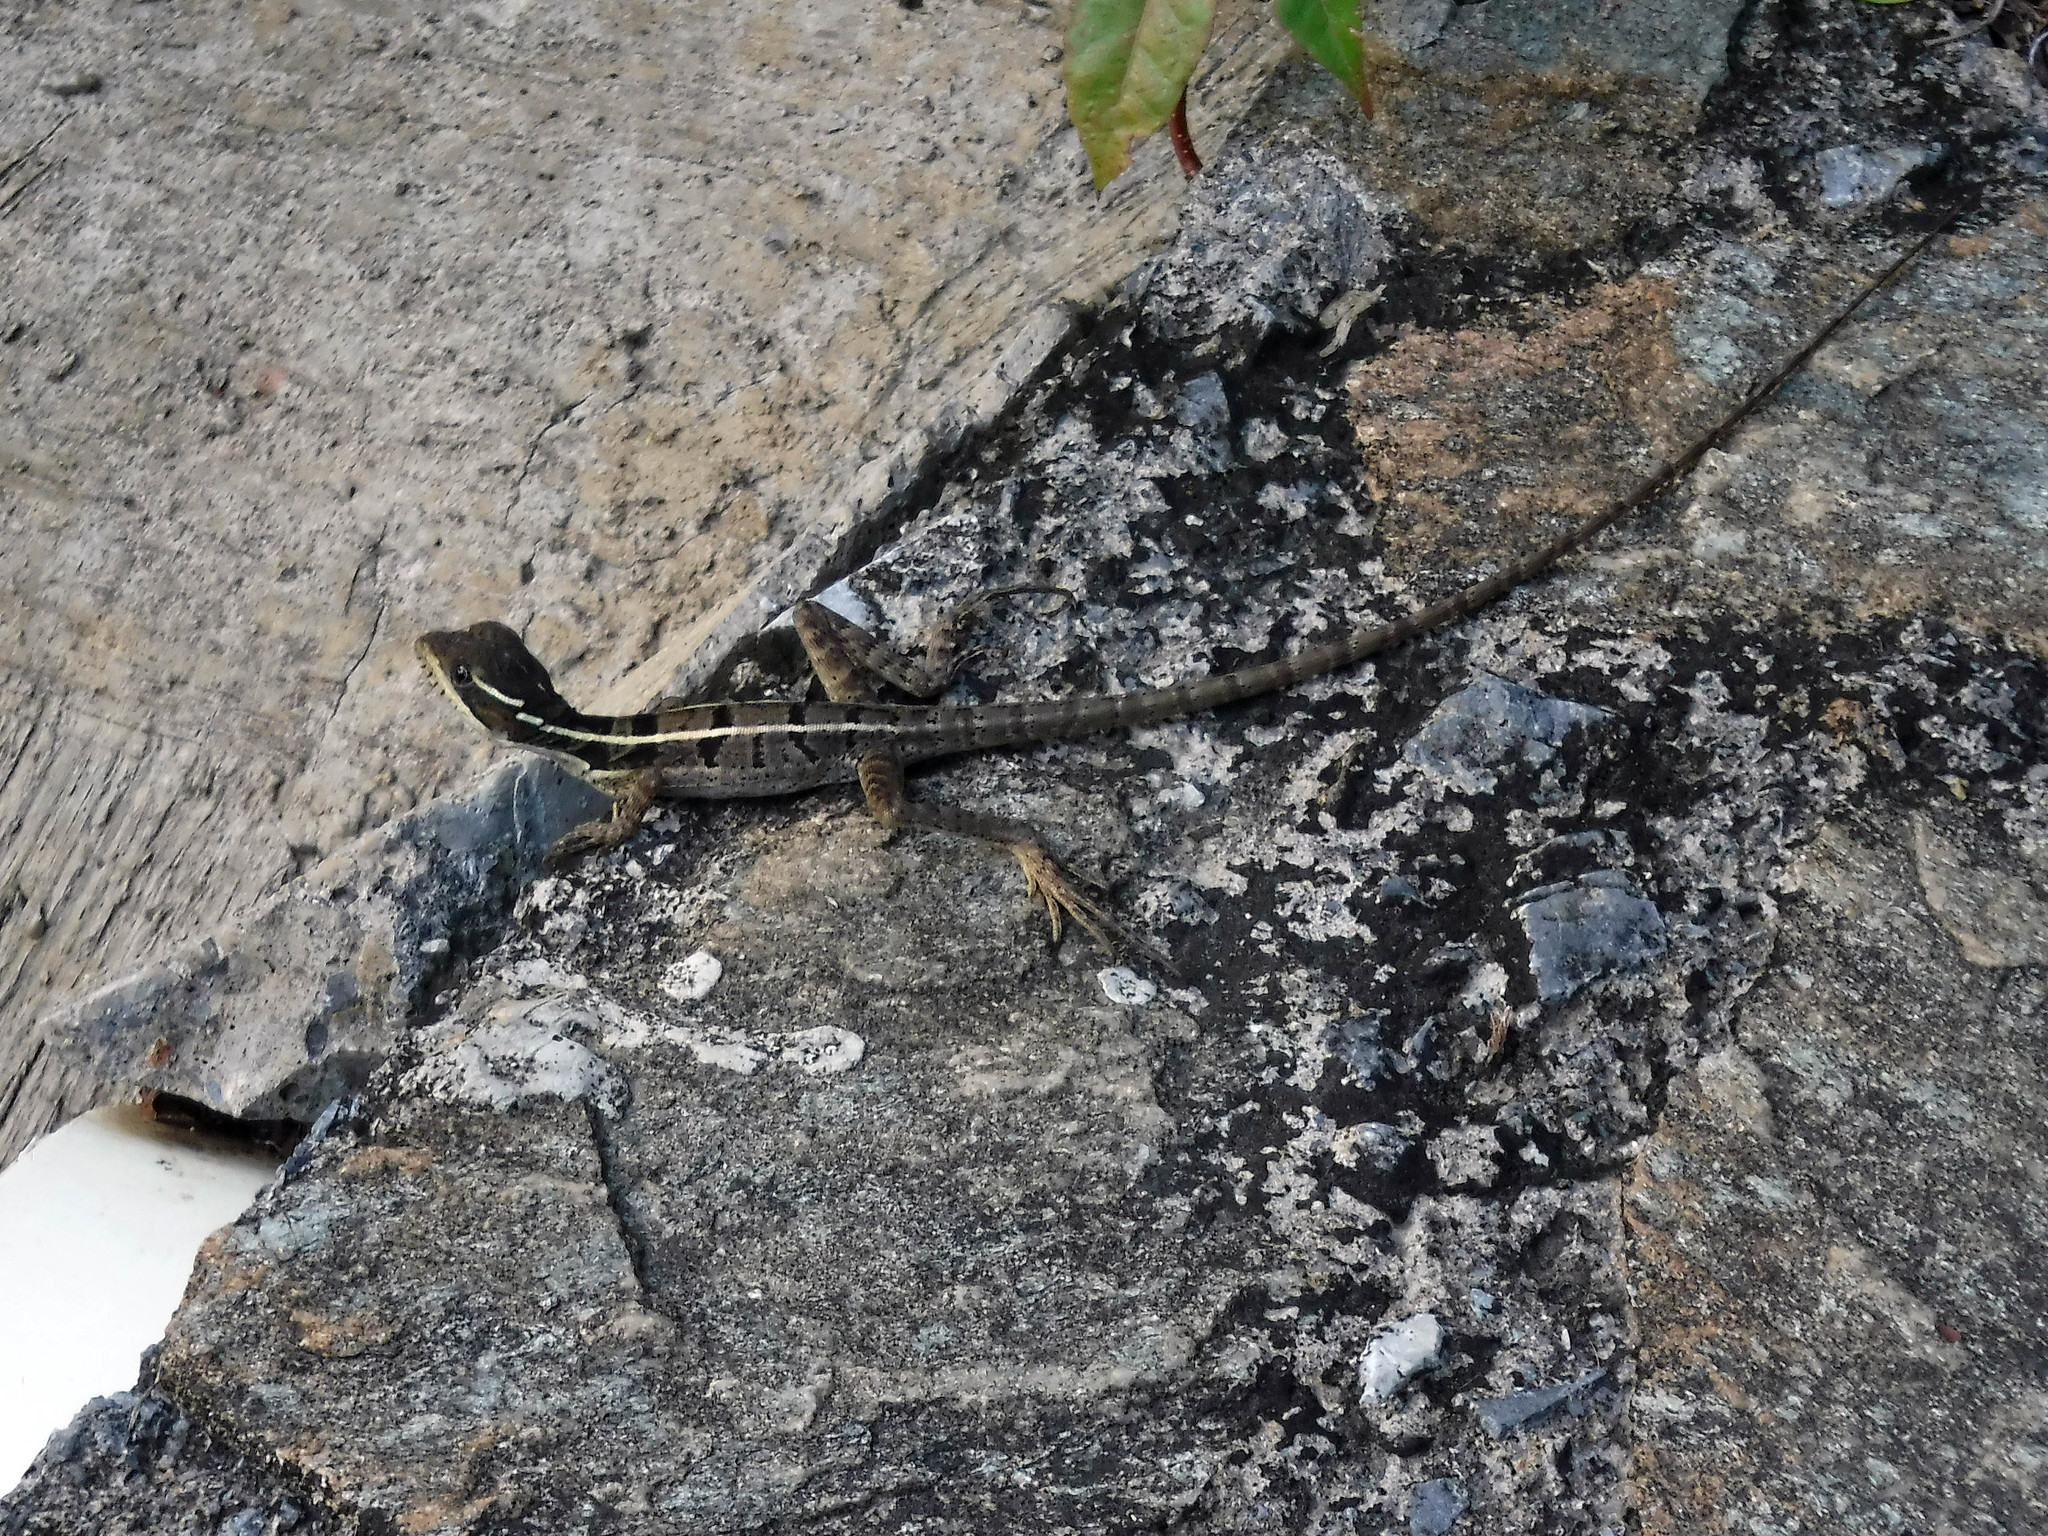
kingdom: Animalia
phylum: Chordata
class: Squamata
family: Corytophanidae
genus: Basiliscus
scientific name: Basiliscus vittatus
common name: Brown basilisk
